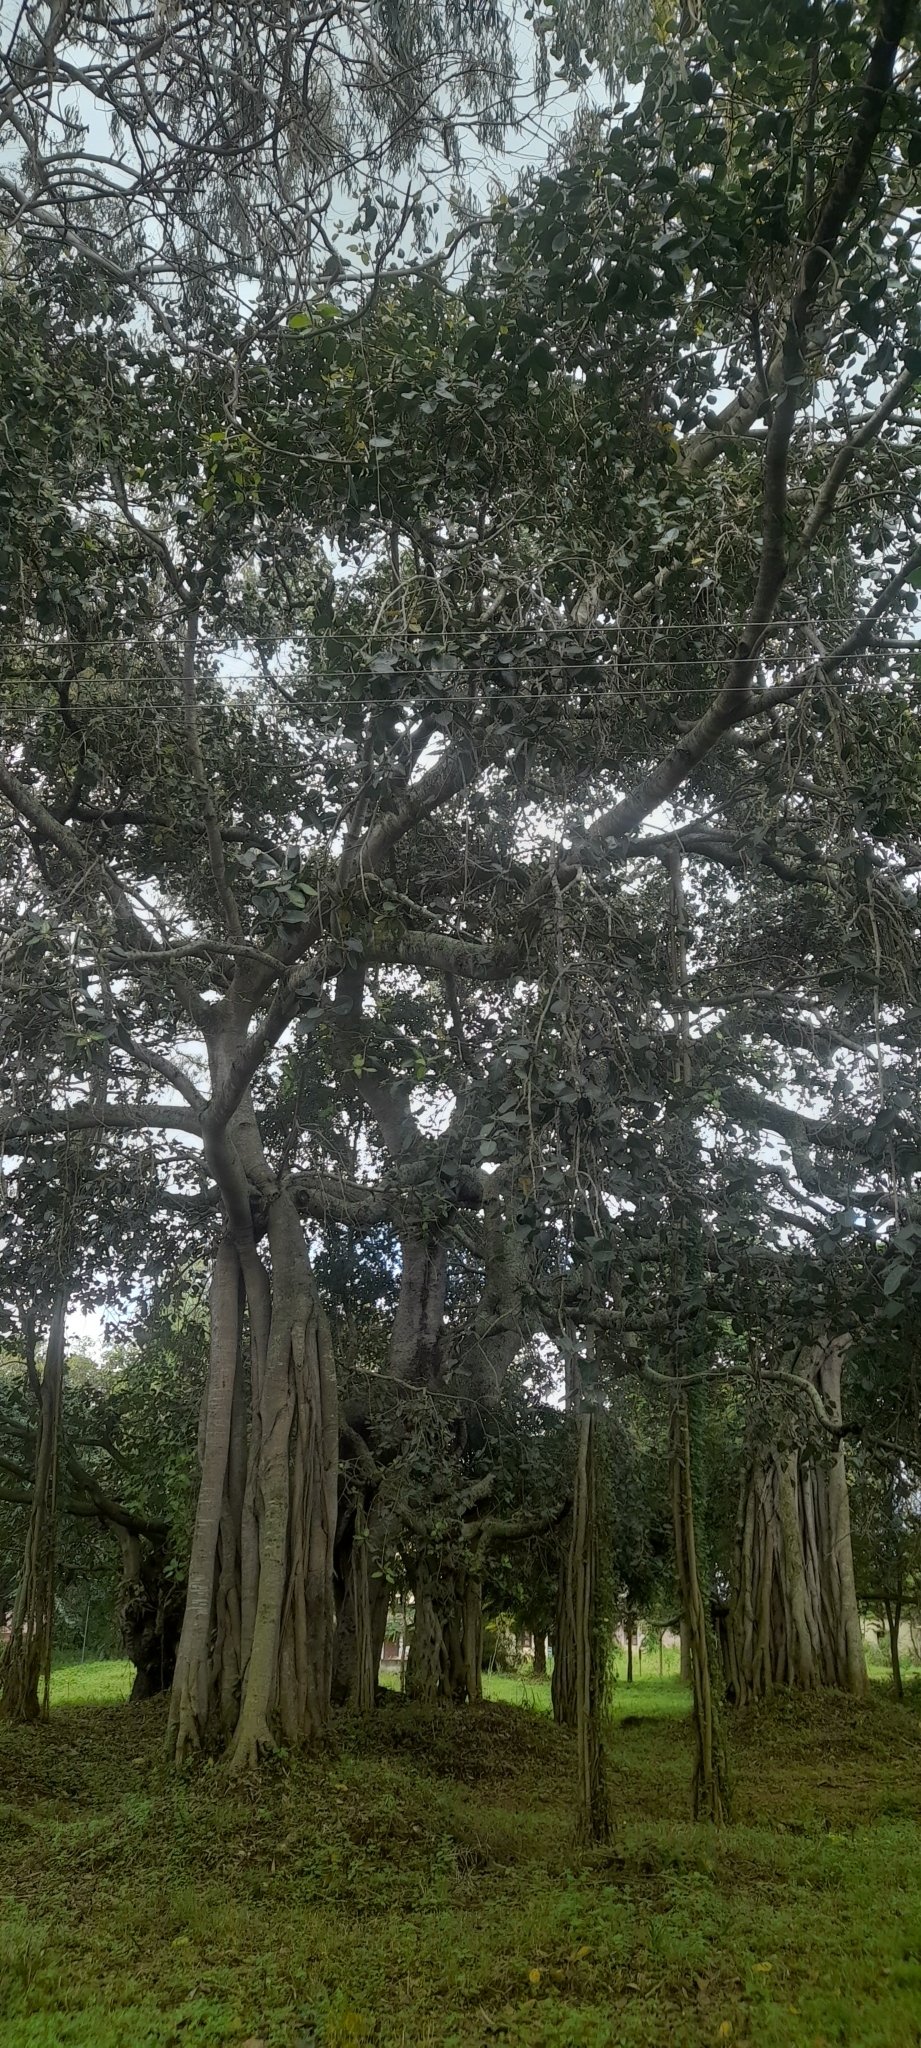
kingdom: Plantae
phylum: Tracheophyta
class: Magnoliopsida
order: Rosales
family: Moraceae
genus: Ficus
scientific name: Ficus benghalensis
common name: Indian banyan
